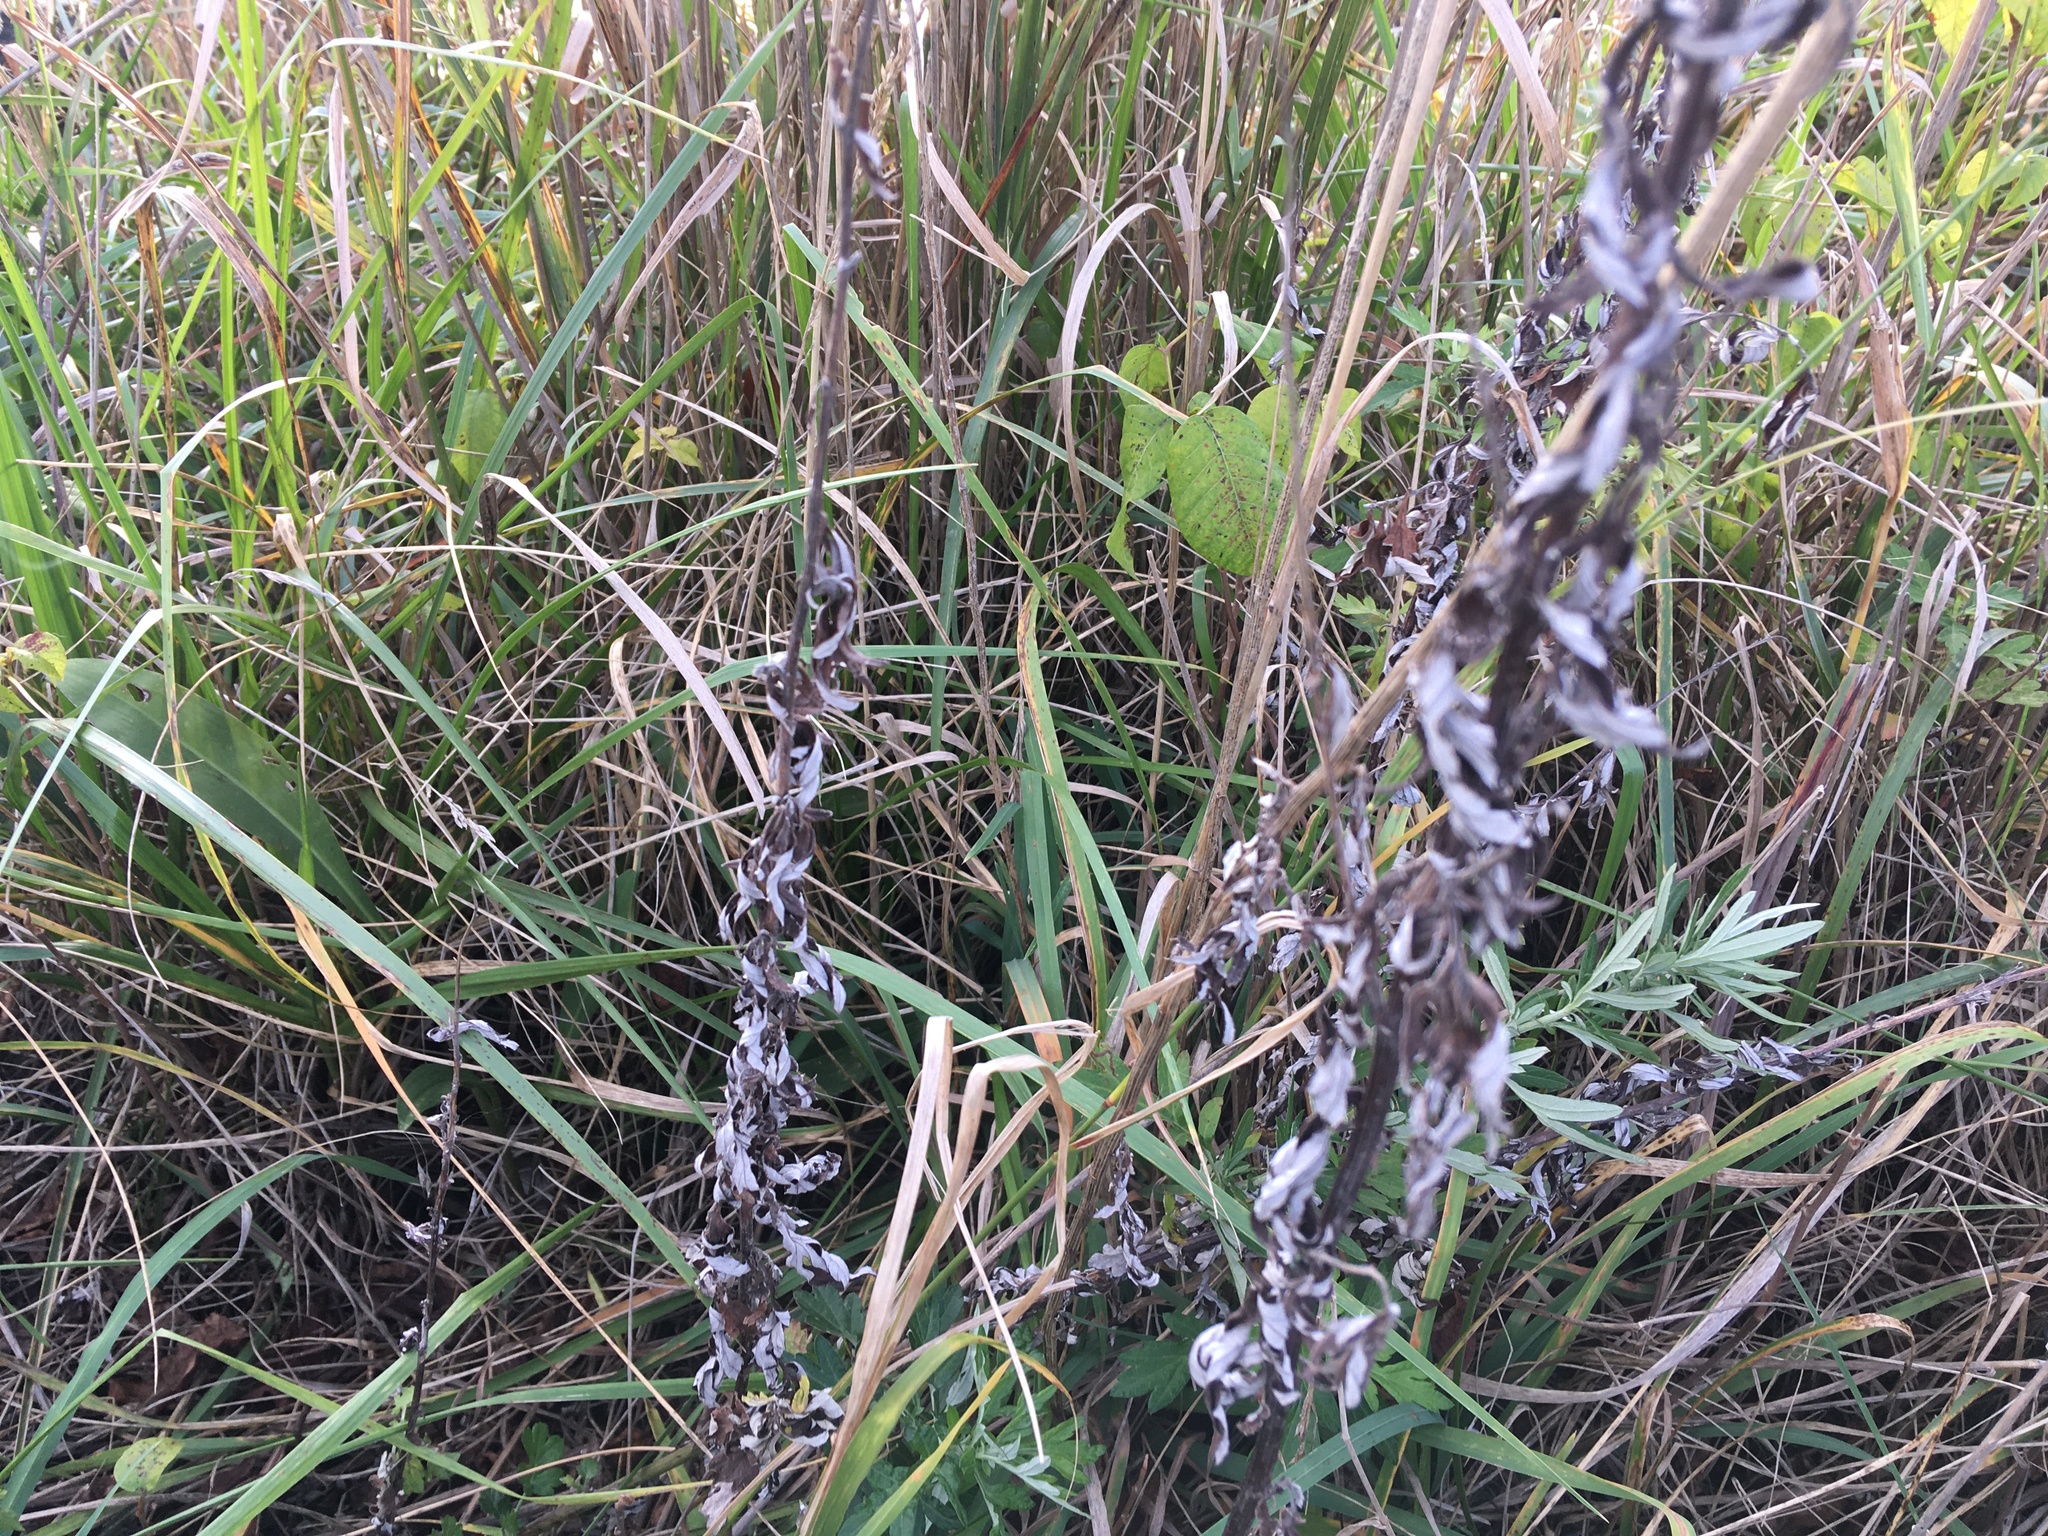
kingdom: Plantae
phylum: Tracheophyta
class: Magnoliopsida
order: Asterales
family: Asteraceae
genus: Artemisia
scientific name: Artemisia vulgaris
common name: Mugwort
